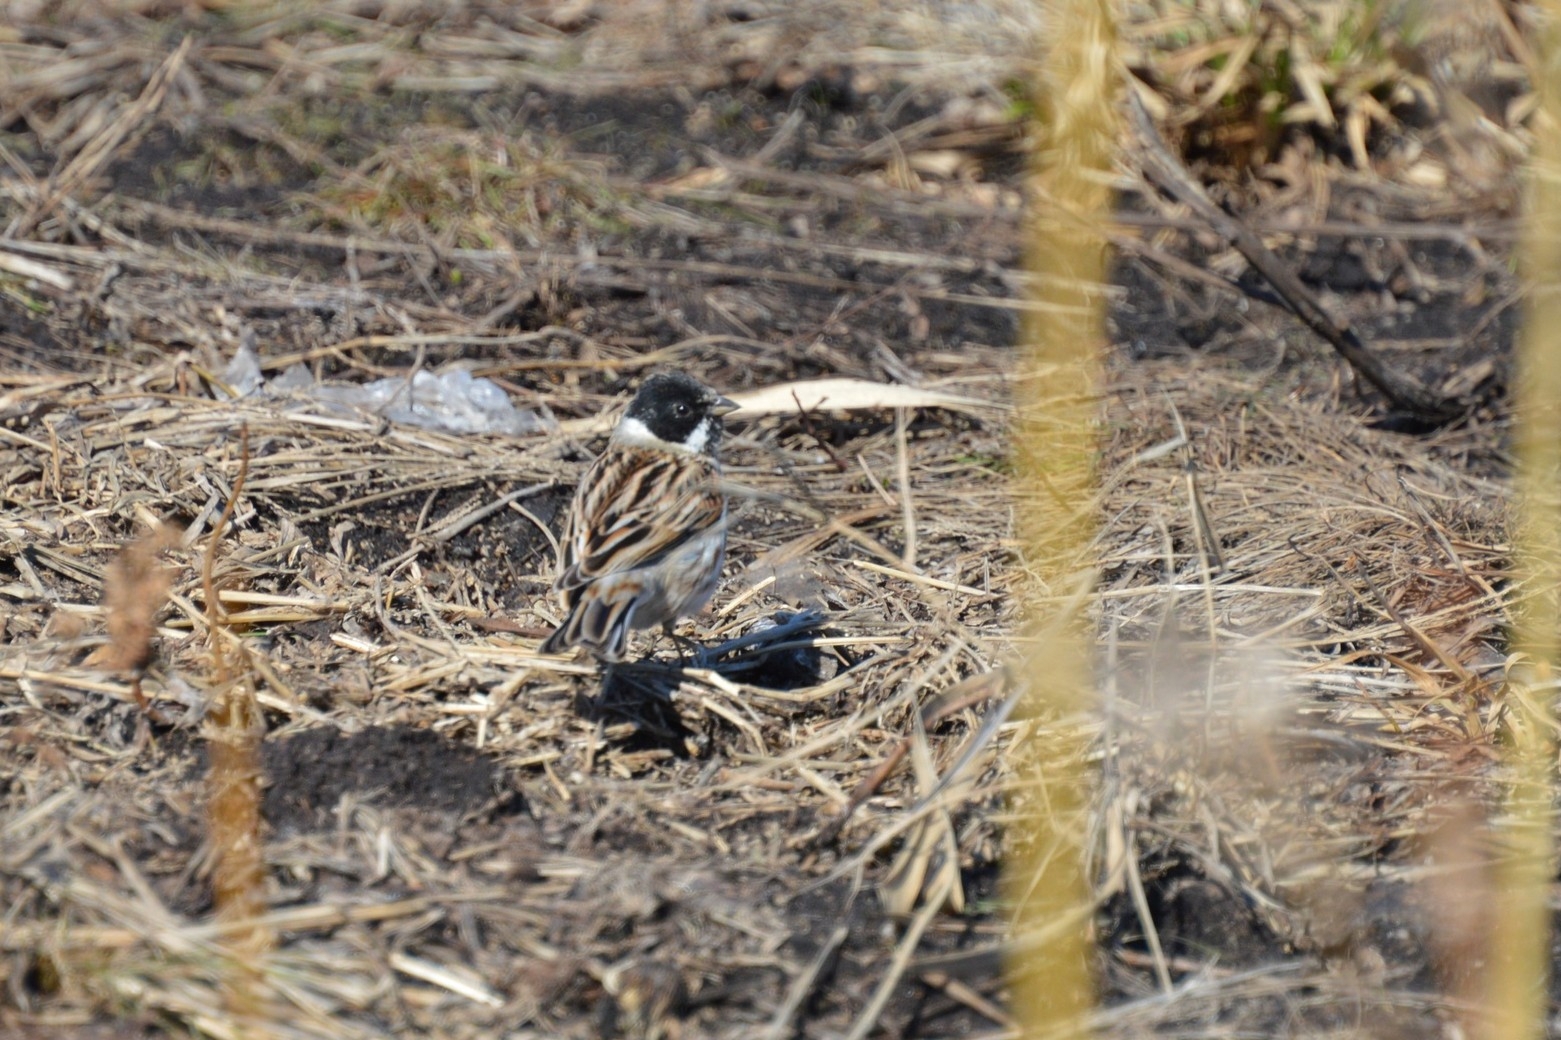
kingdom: Animalia
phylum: Chordata
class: Aves
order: Passeriformes
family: Emberizidae
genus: Emberiza
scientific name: Emberiza schoeniclus
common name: Reed bunting
